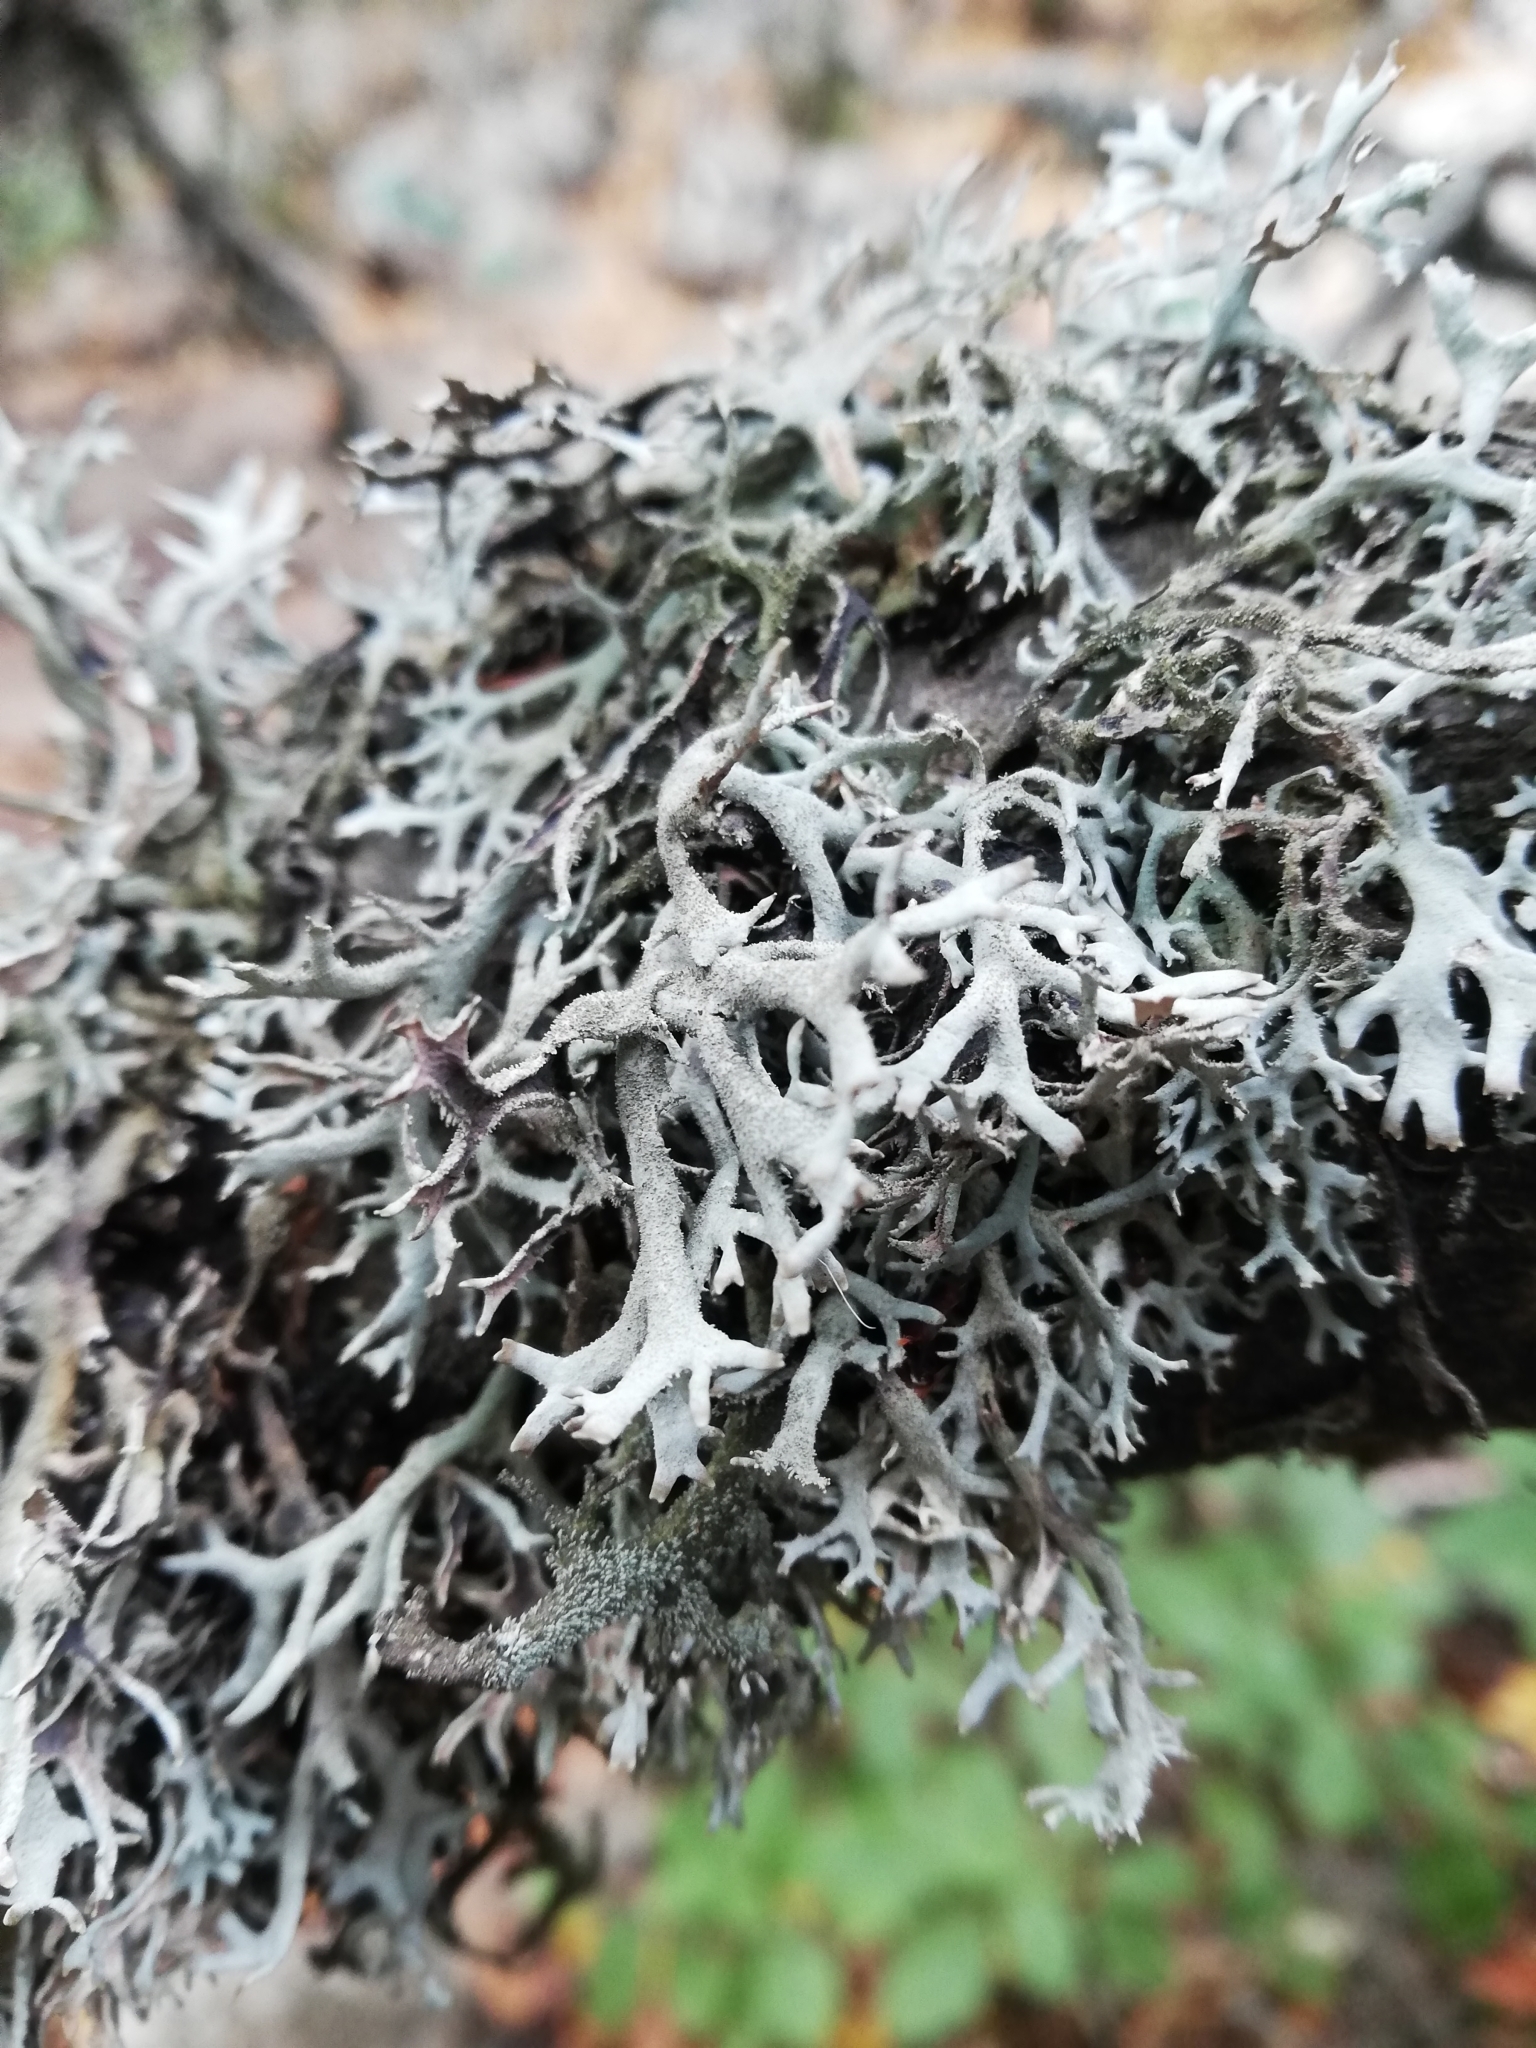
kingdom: Fungi
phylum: Ascomycota
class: Lecanoromycetes
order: Lecanorales
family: Parmeliaceae
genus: Pseudevernia
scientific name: Pseudevernia furfuracea
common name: Tree moss
